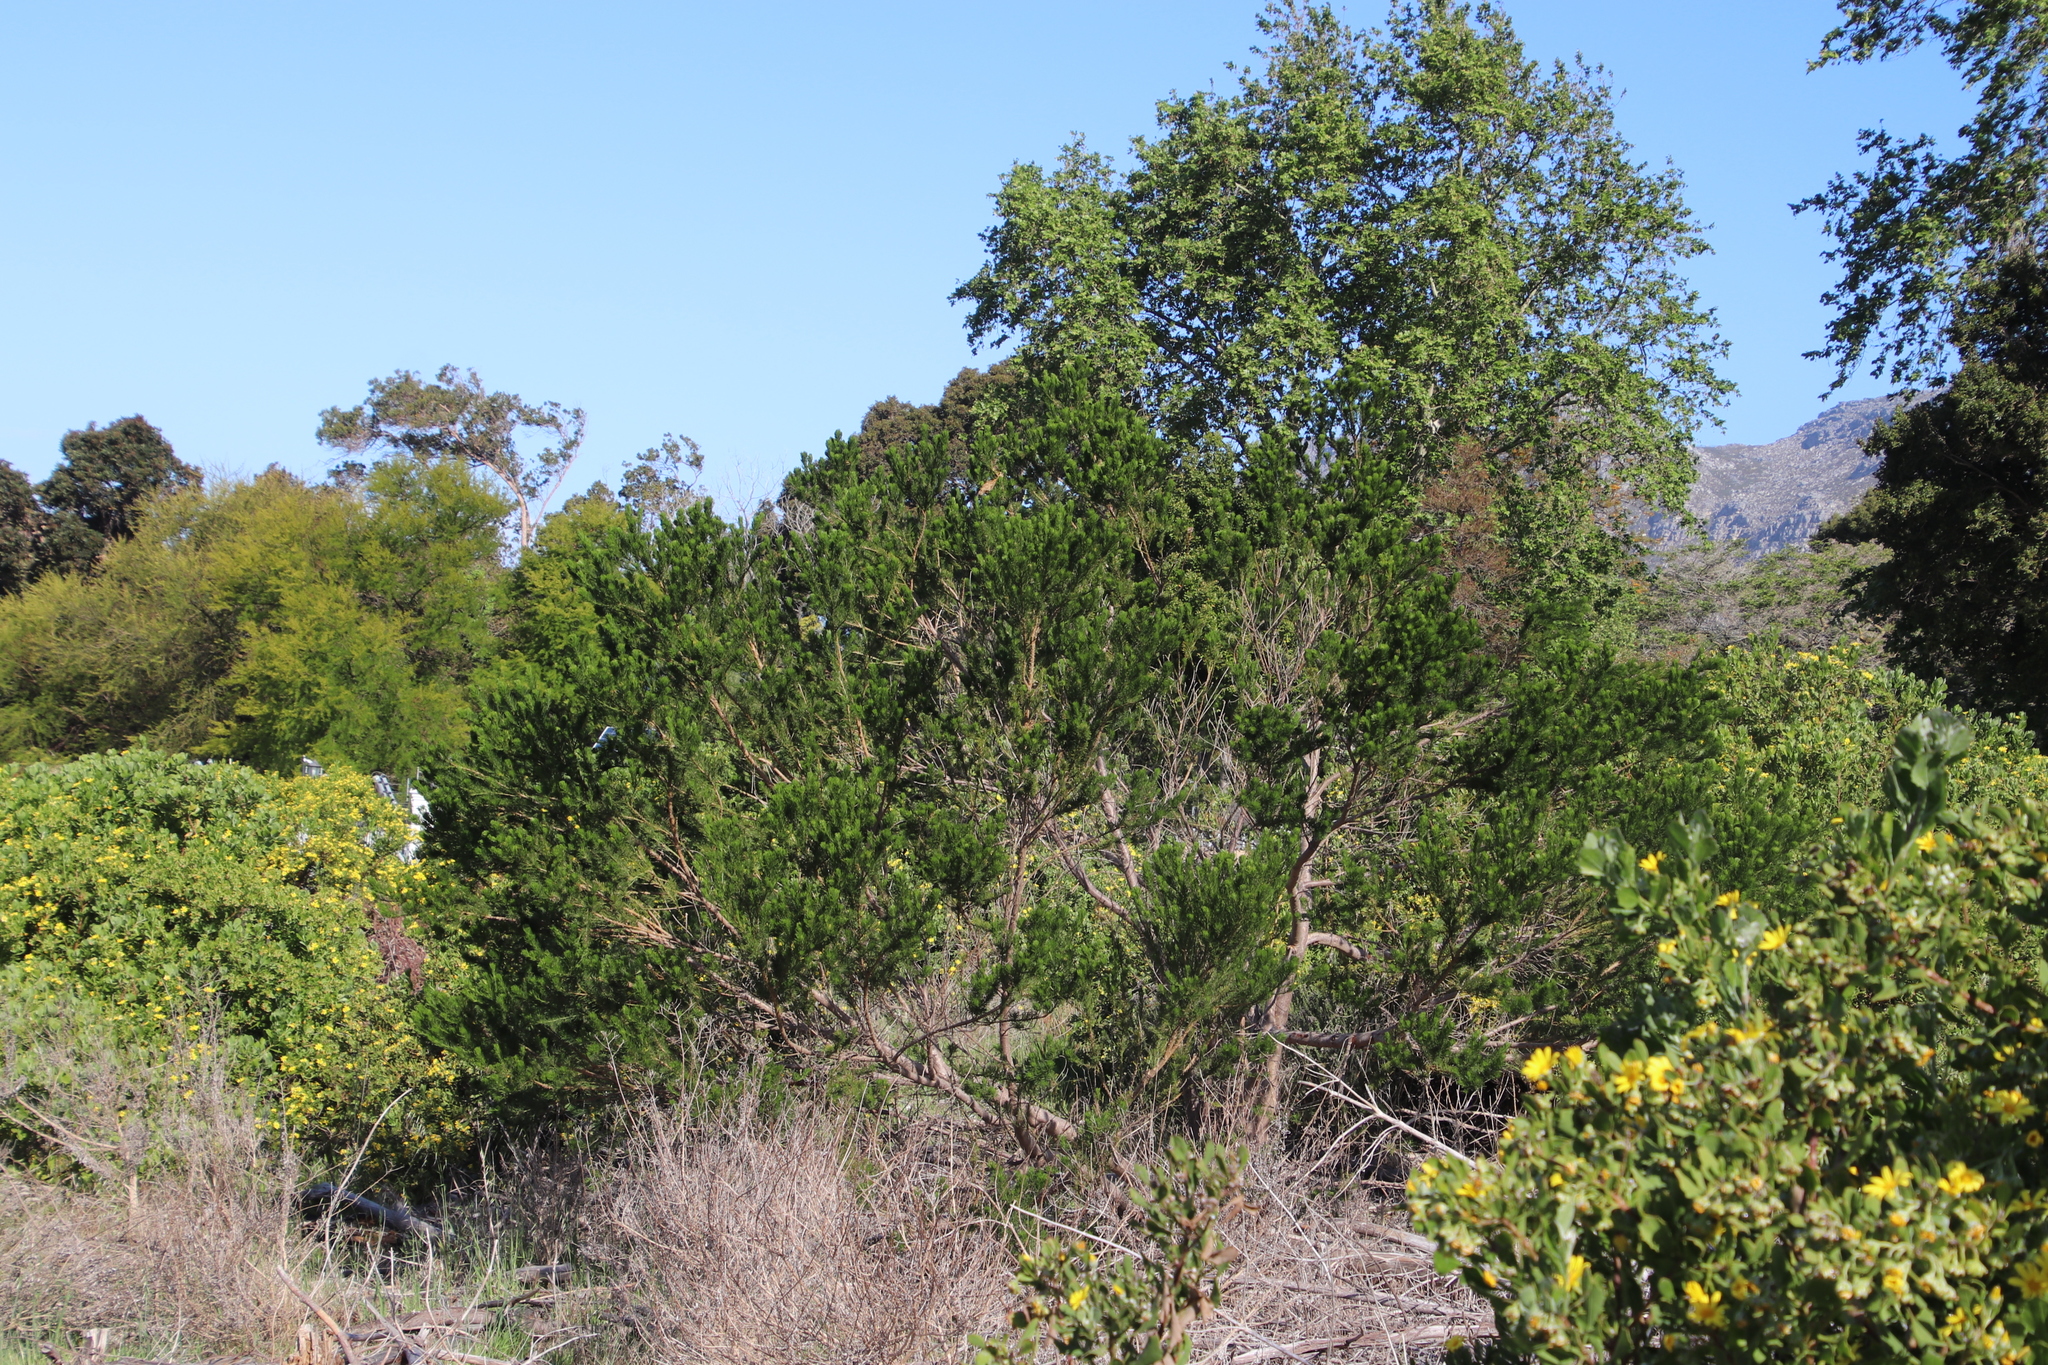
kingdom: Plantae
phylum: Tracheophyta
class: Magnoliopsida
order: Fabales
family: Fabaceae
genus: Psoralea
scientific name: Psoralea pinnata
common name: African scurfpea
